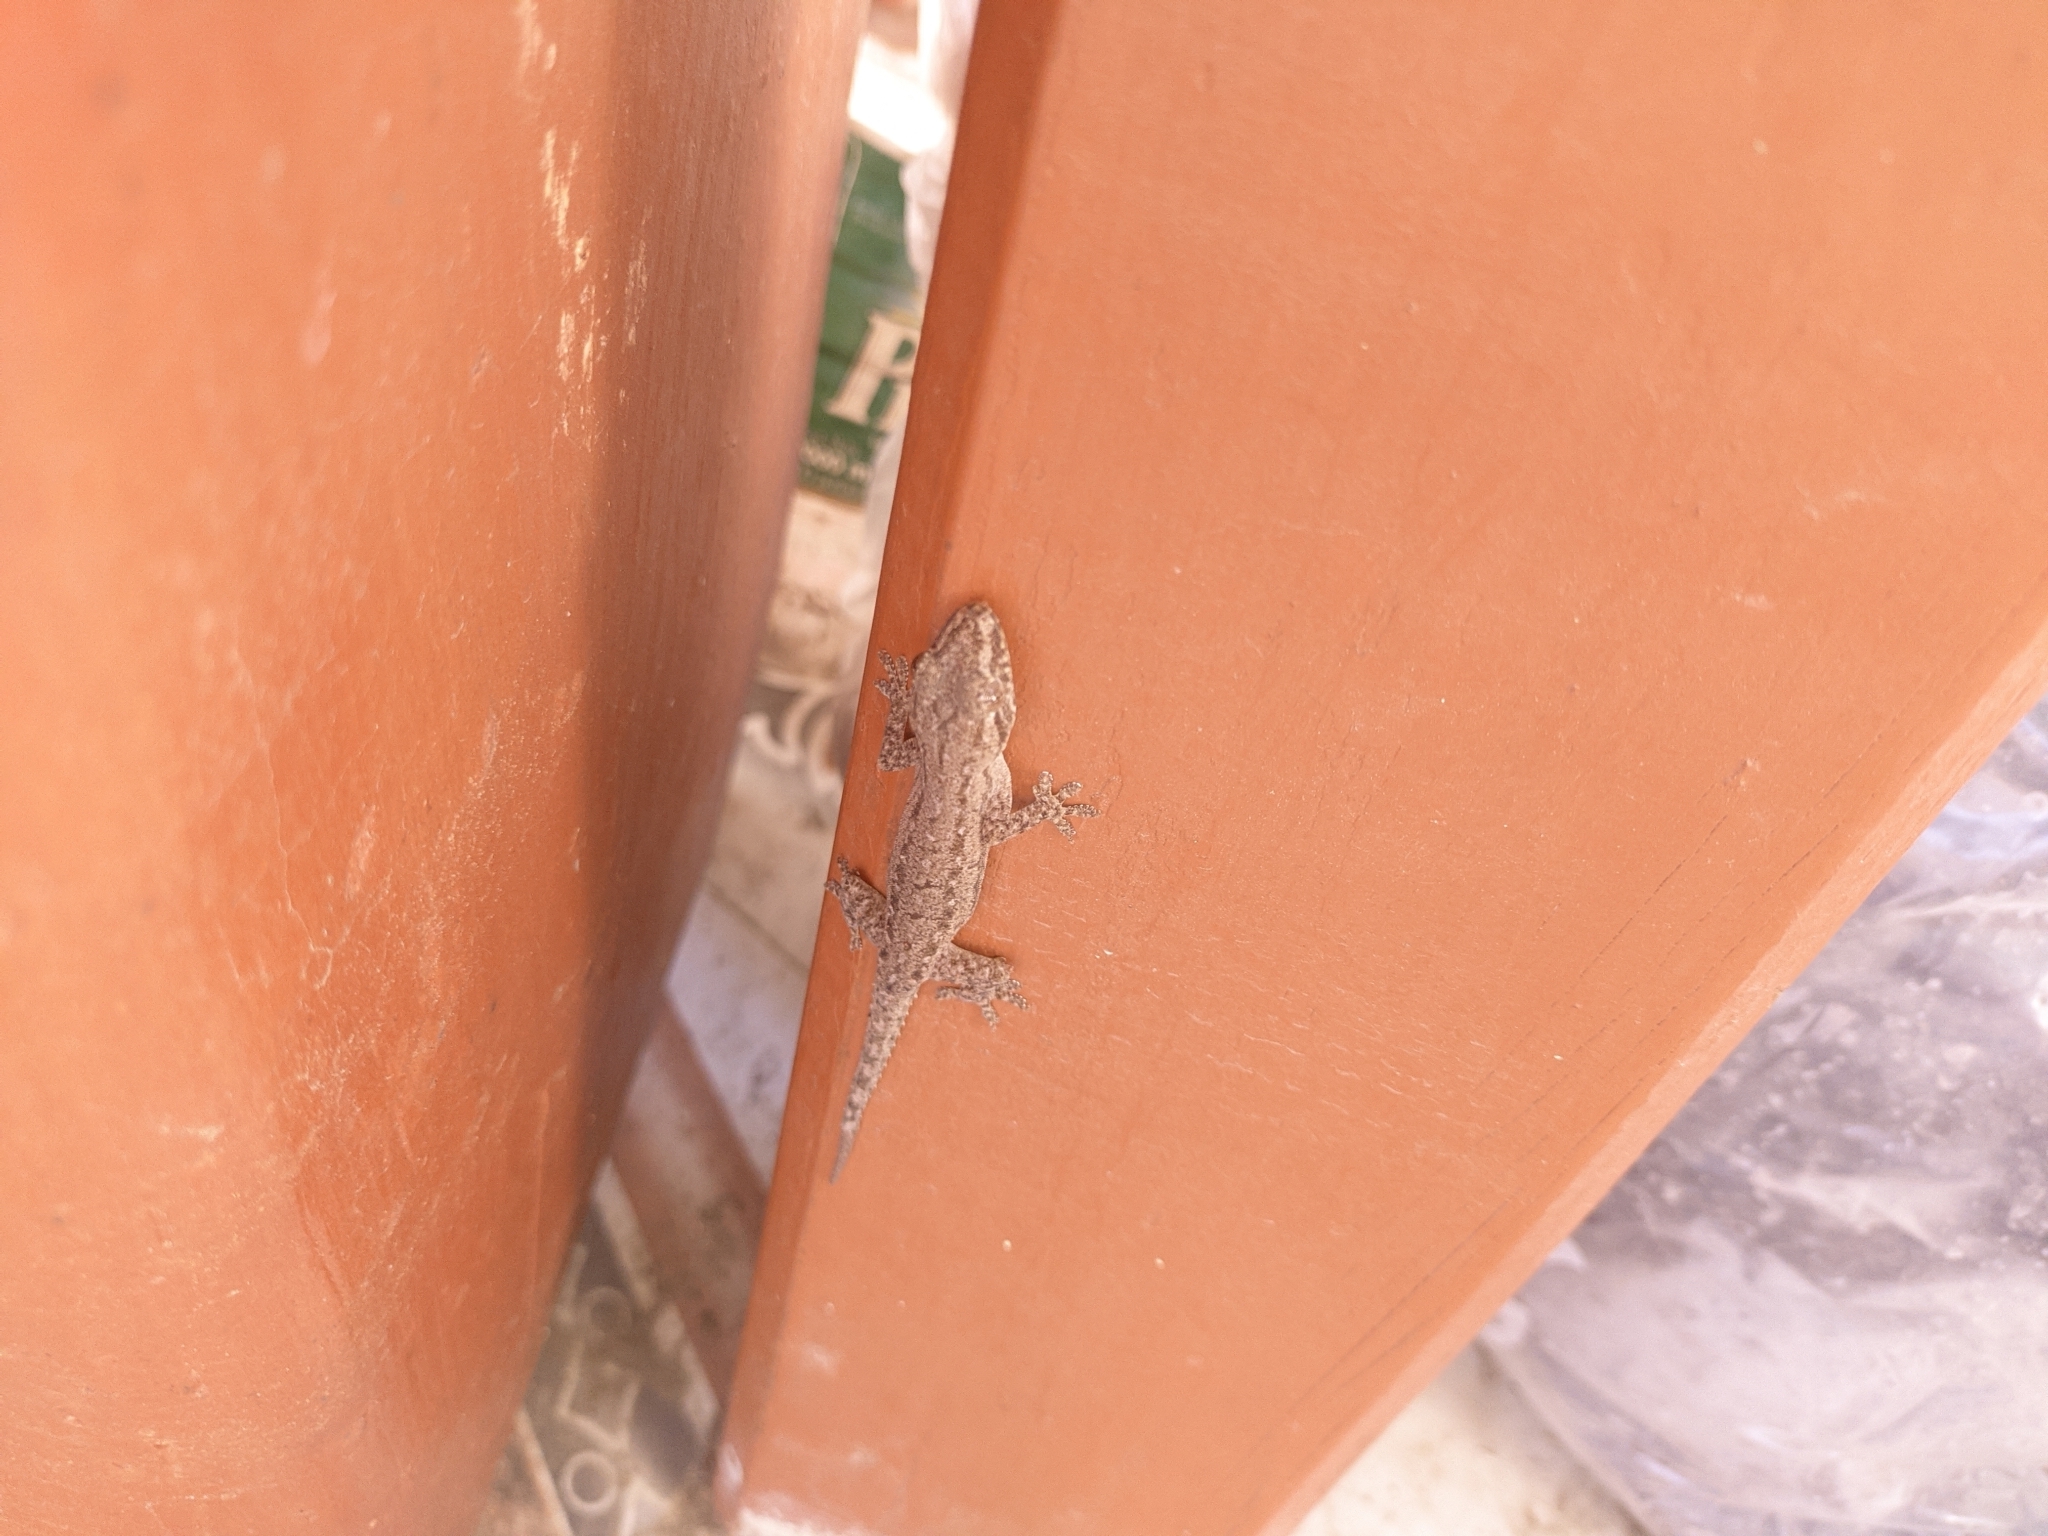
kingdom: Animalia
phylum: Chordata
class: Squamata
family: Gekkonidae
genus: Hemidactylus
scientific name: Hemidactylus frenatus
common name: Common house gecko
